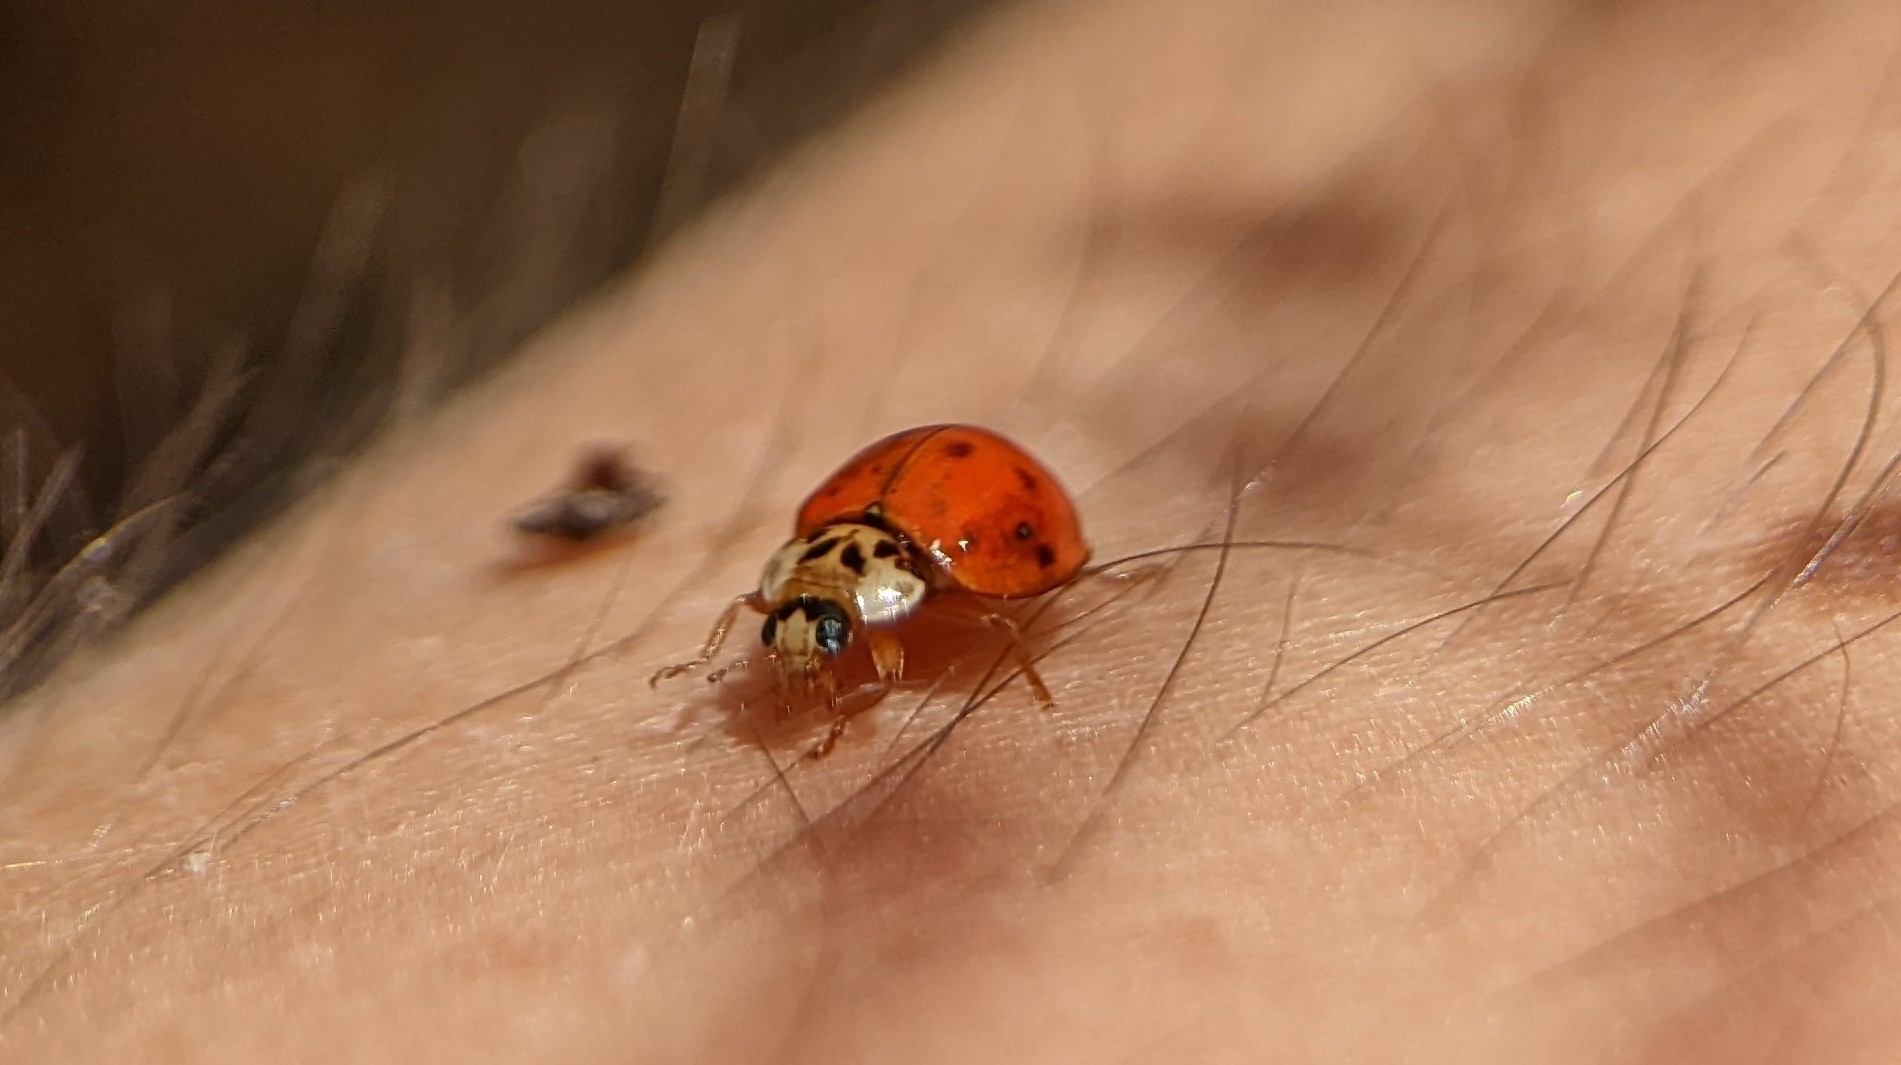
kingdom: Animalia
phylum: Arthropoda
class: Insecta
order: Coleoptera
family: Coccinellidae
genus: Harmonia
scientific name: Harmonia axyridis
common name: Harlequin ladybird
